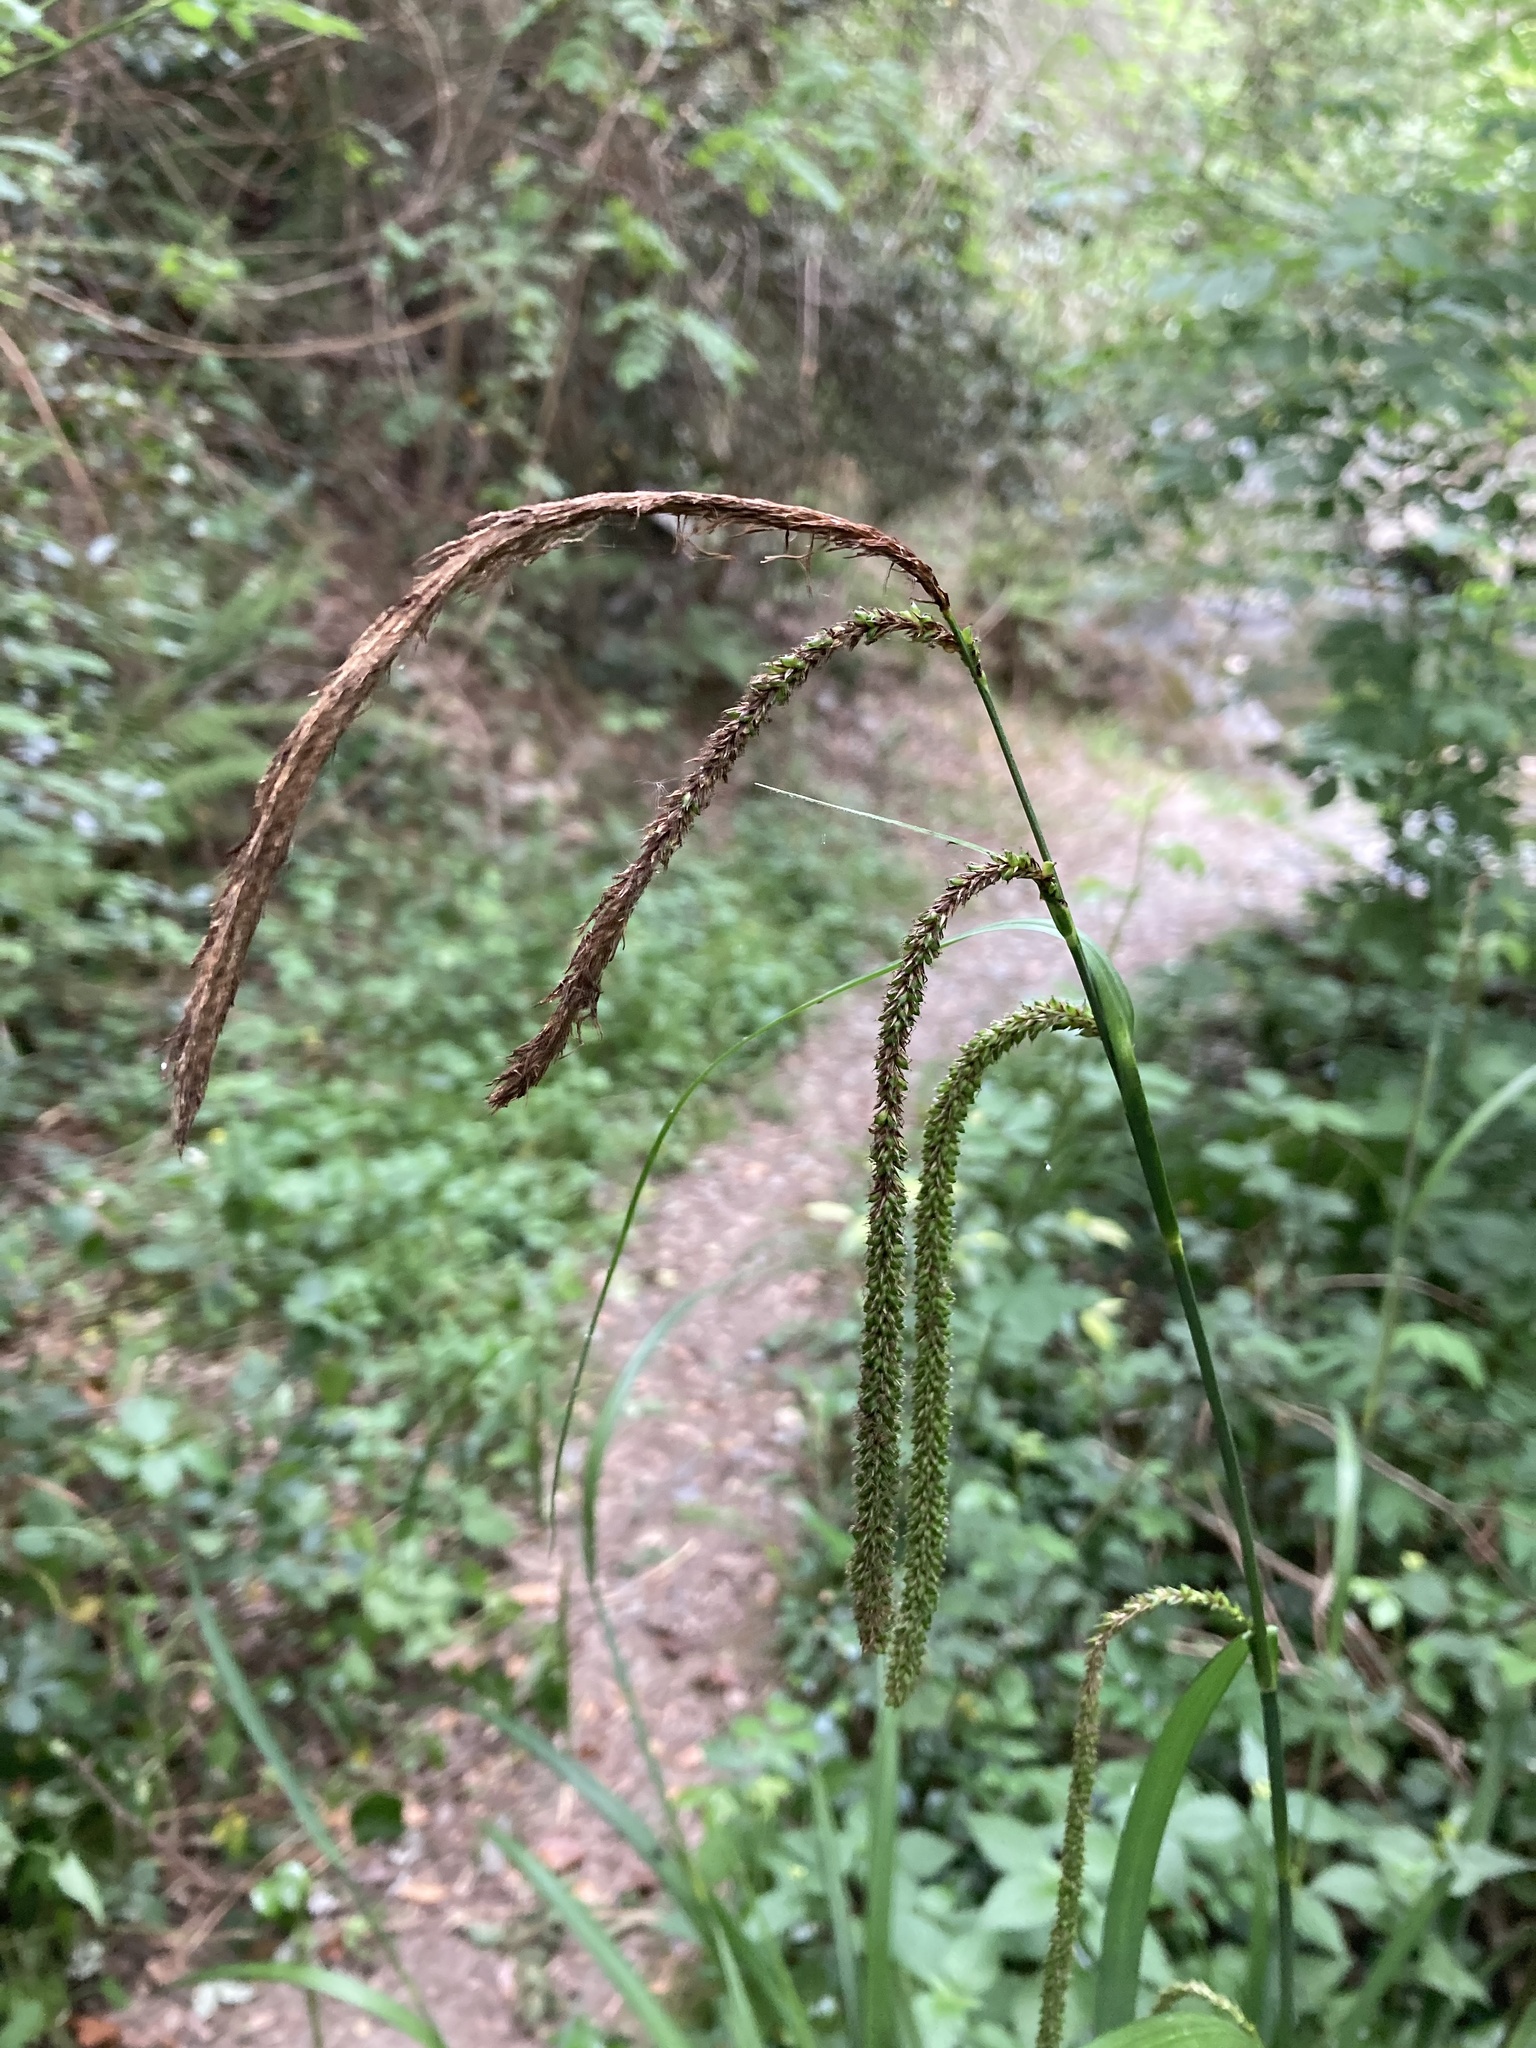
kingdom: Plantae
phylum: Tracheophyta
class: Liliopsida
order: Poales
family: Cyperaceae
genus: Carex
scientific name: Carex pendula
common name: Pendulous sedge
